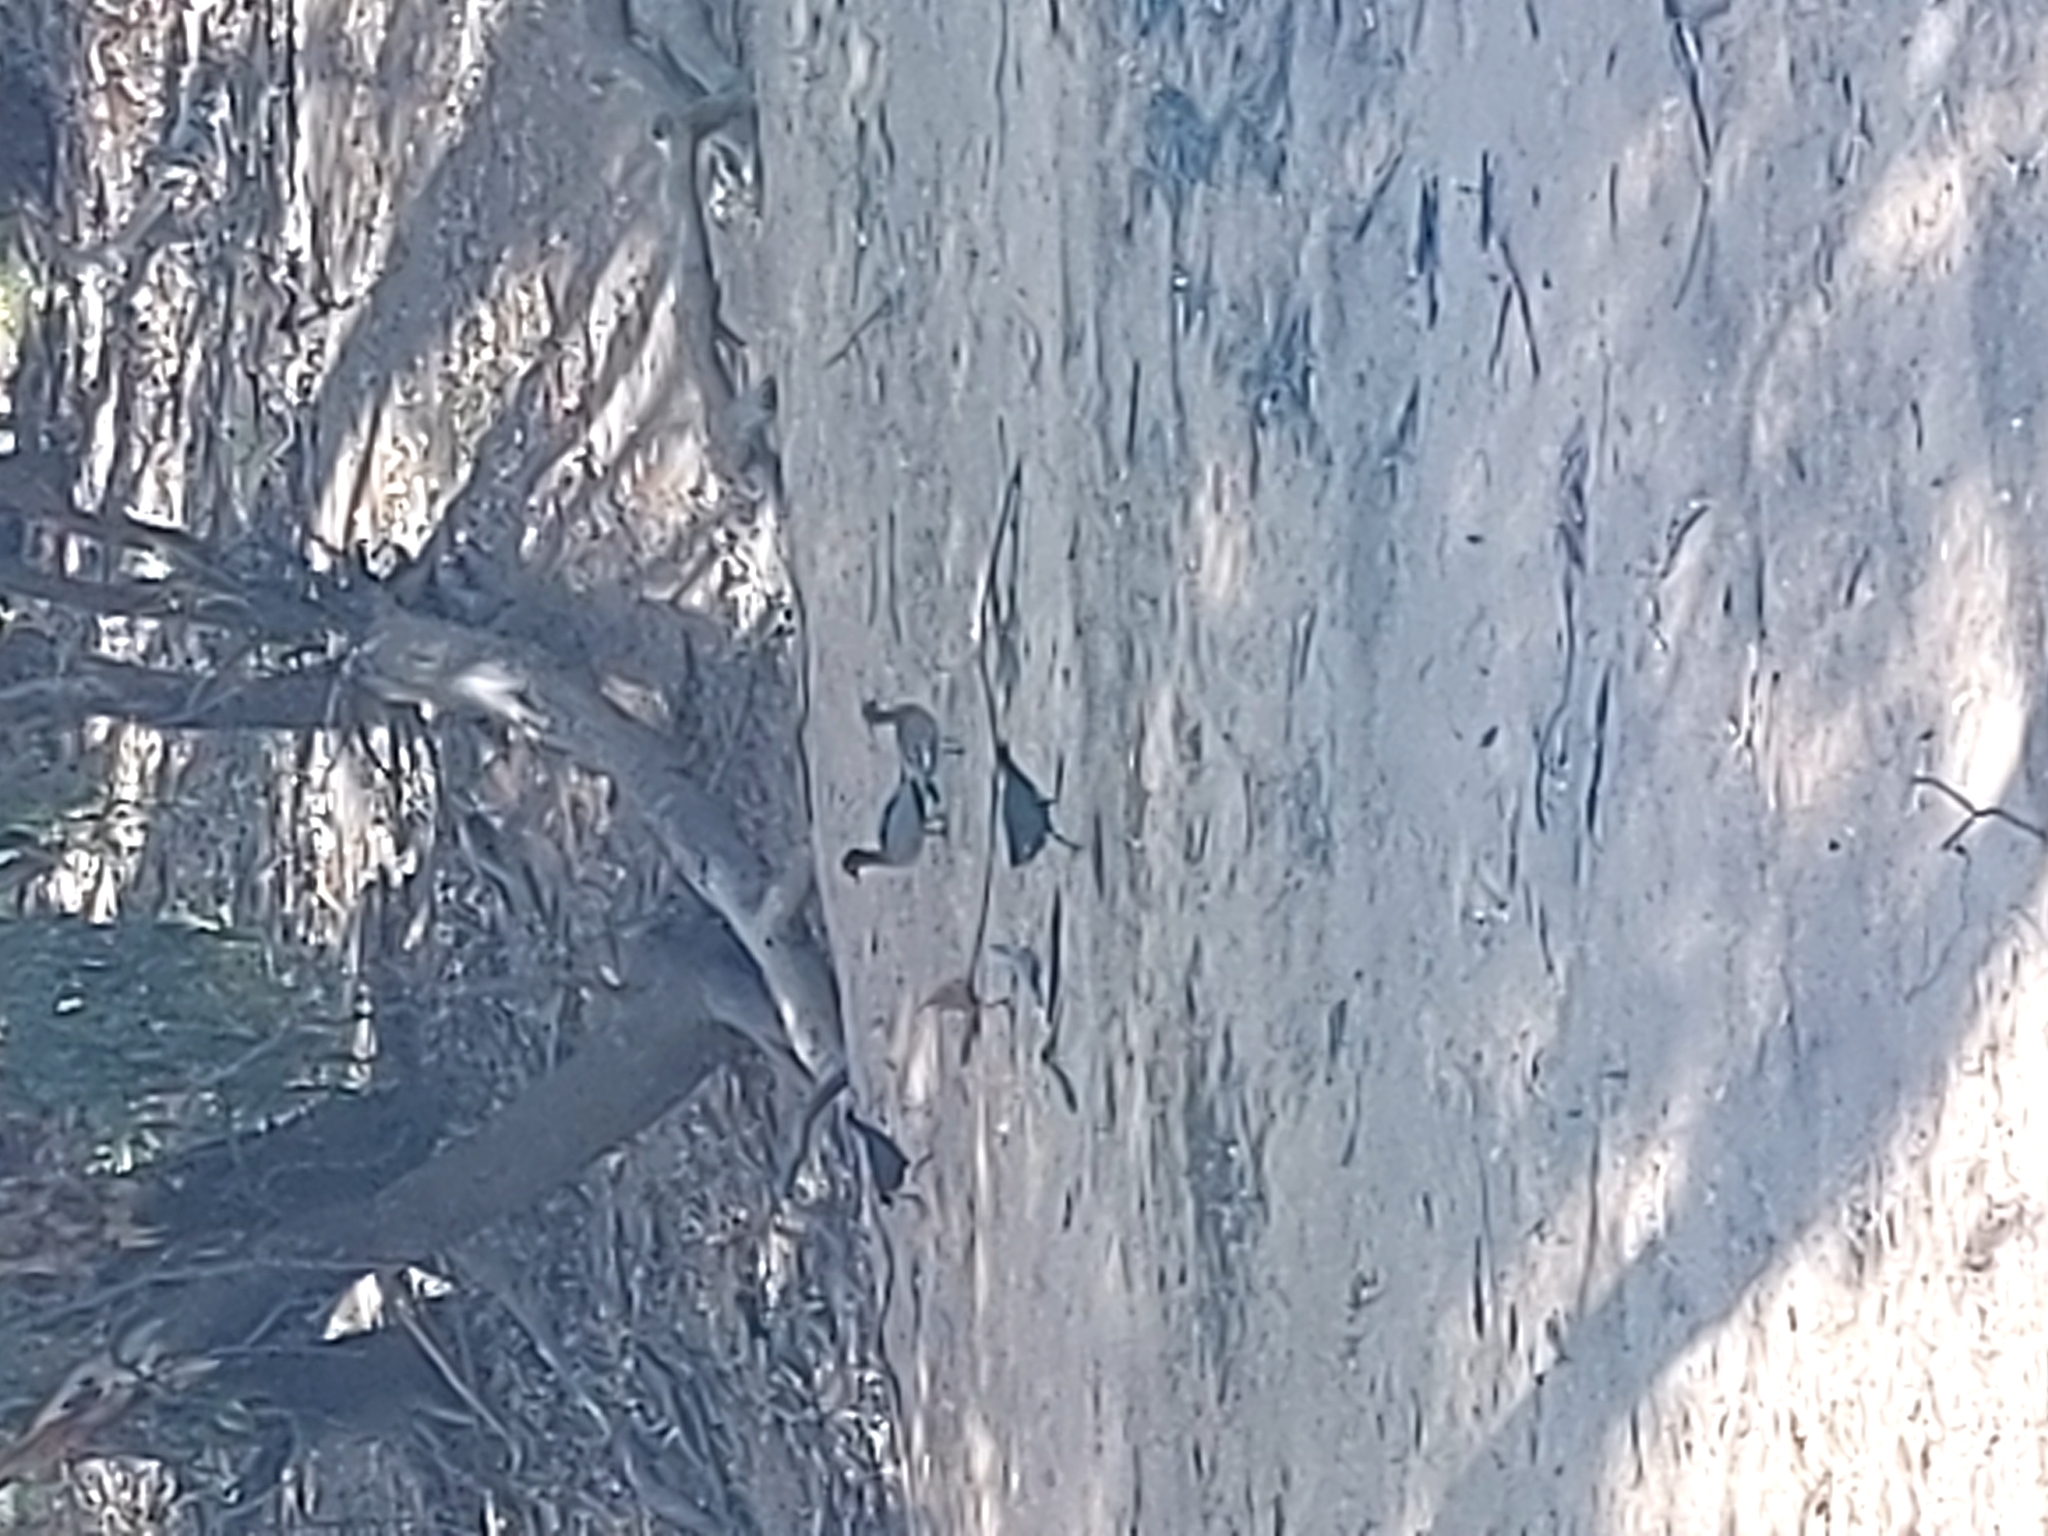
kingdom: Animalia
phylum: Chordata
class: Aves
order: Anseriformes
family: Anatidae
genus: Chenonetta
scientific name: Chenonetta jubata
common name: Maned duck
